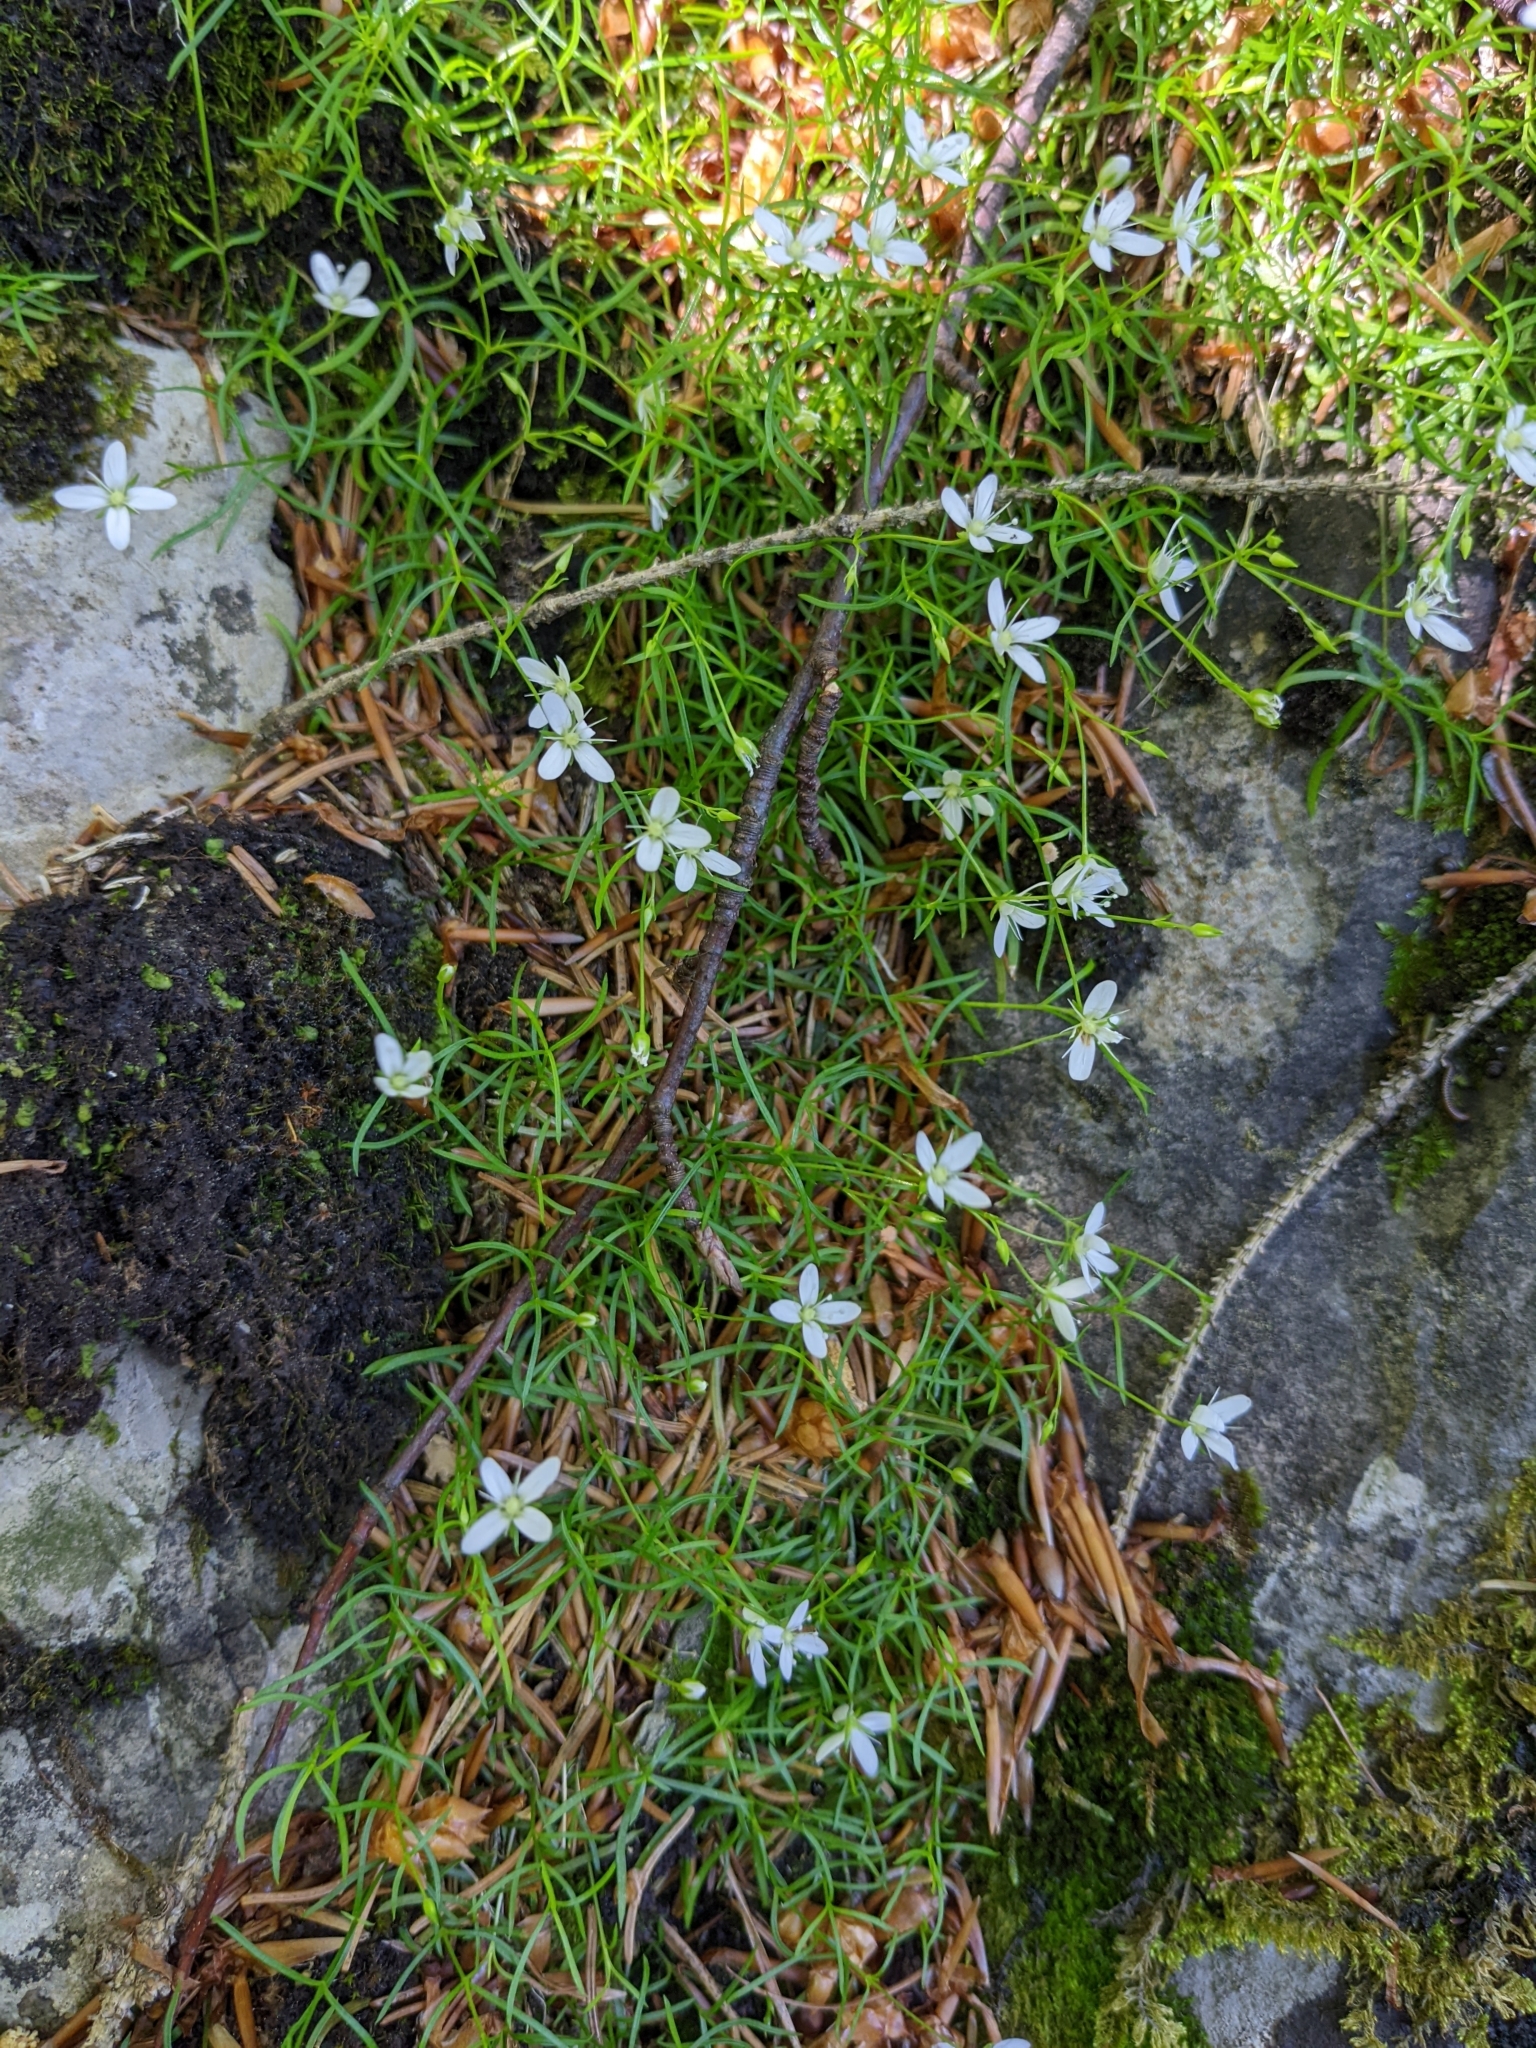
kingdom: Plantae
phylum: Tracheophyta
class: Magnoliopsida
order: Caryophyllales
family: Caryophyllaceae
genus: Moehringia
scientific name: Moehringia muscosa
